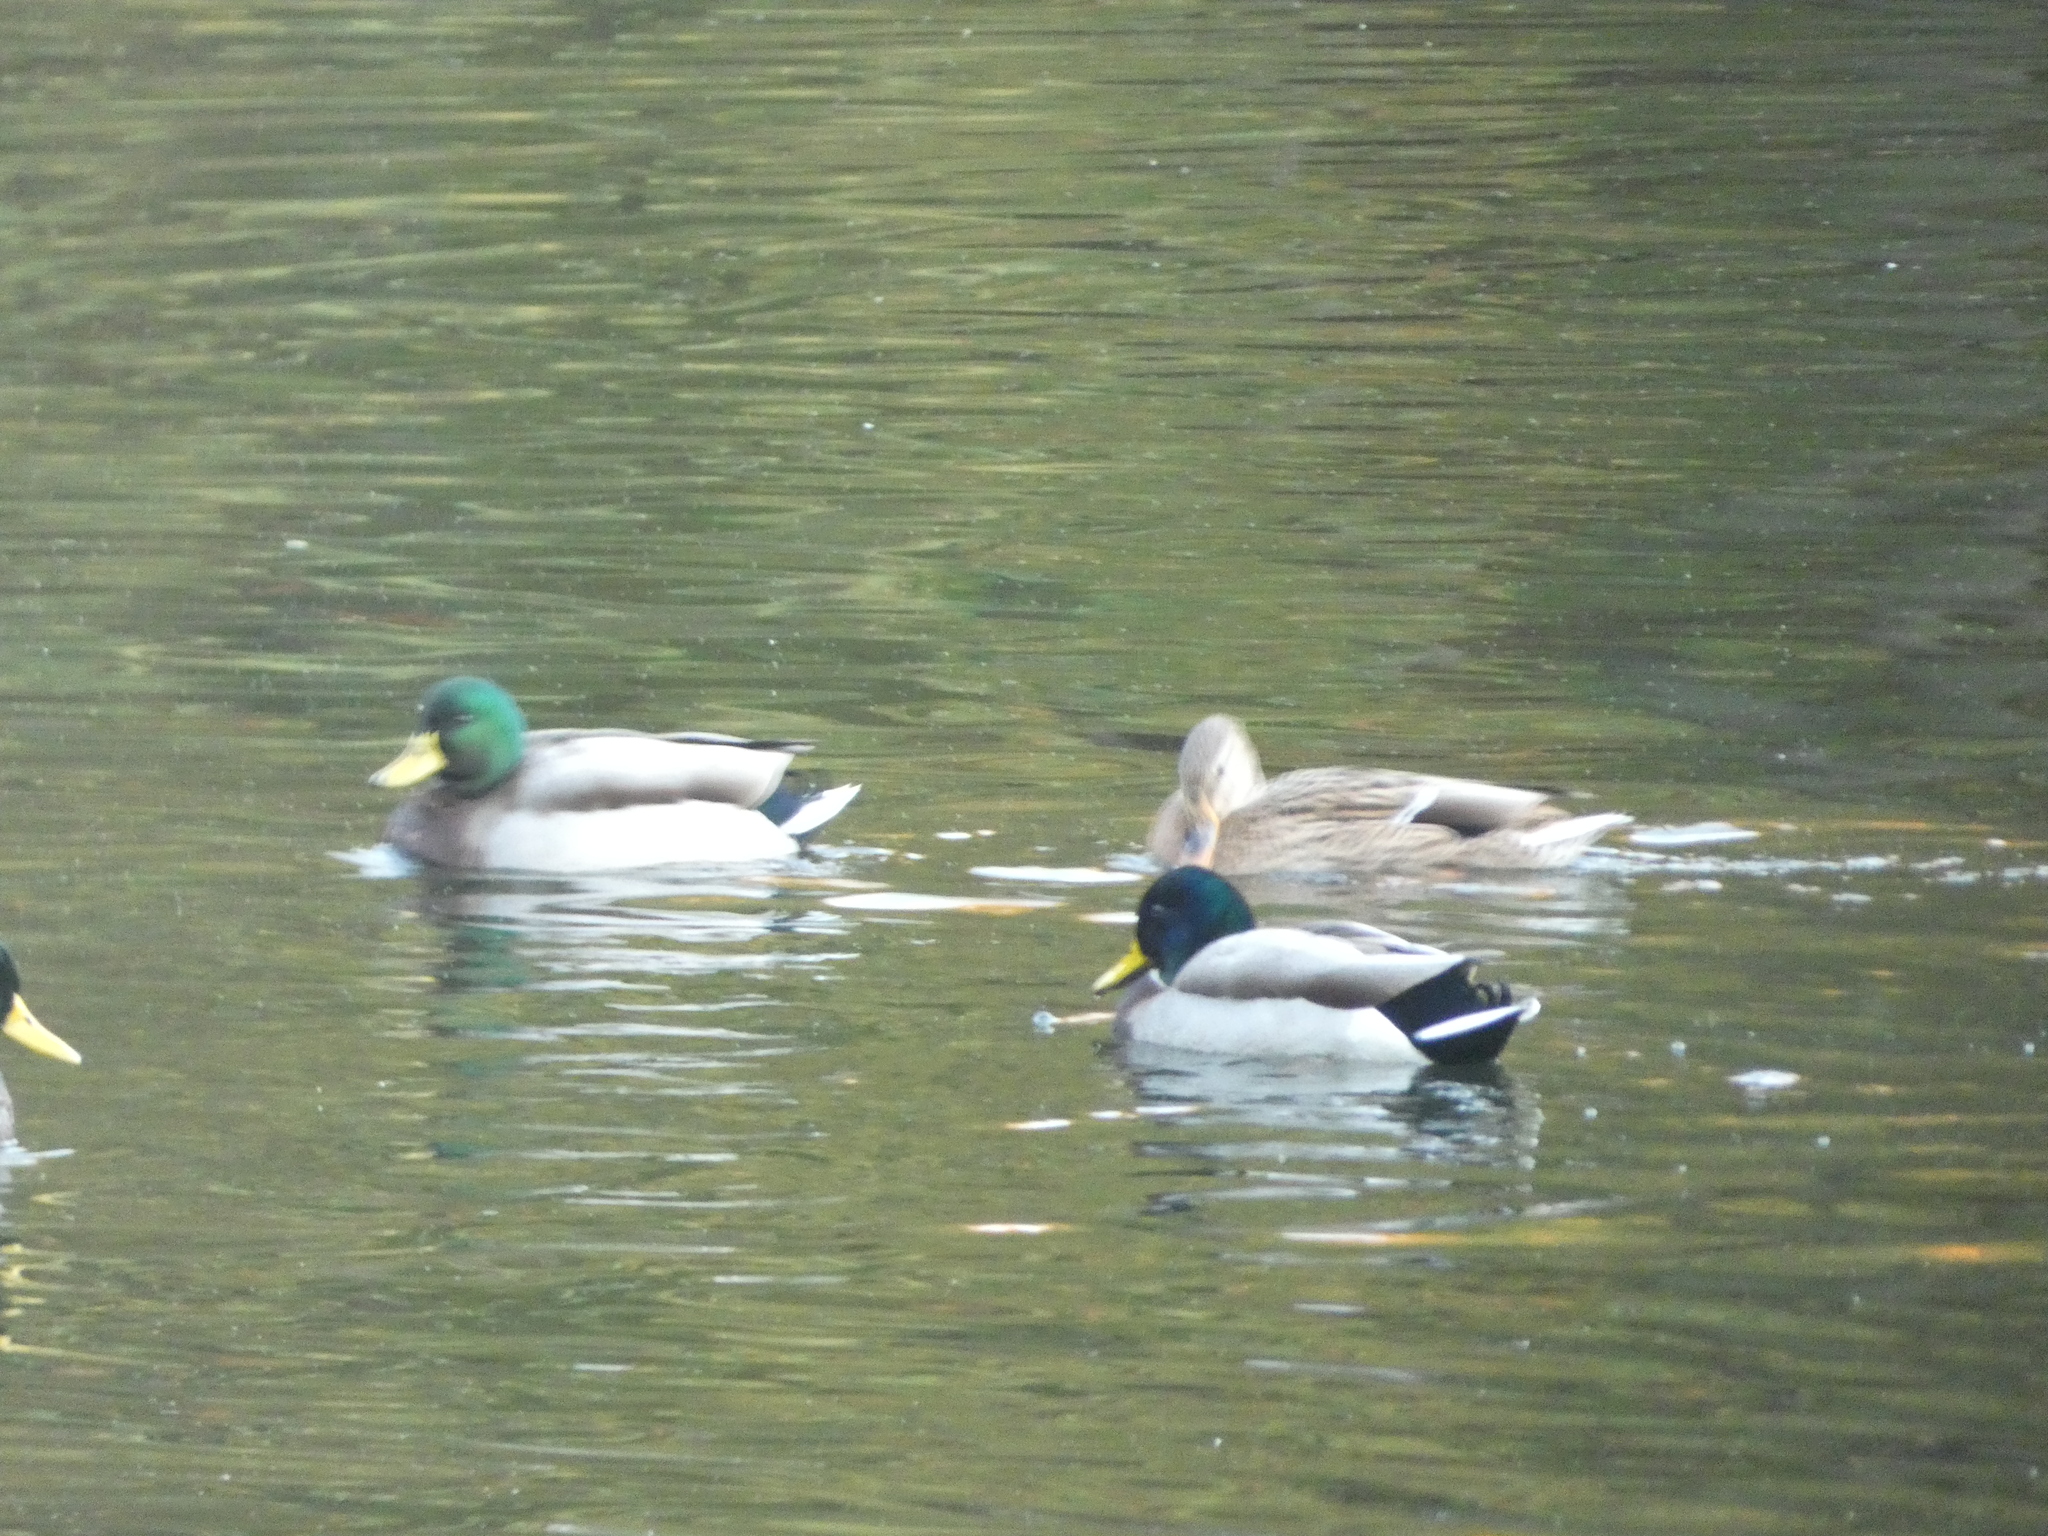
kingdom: Animalia
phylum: Chordata
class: Aves
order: Anseriformes
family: Anatidae
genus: Anas
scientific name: Anas platyrhynchos
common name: Mallard
